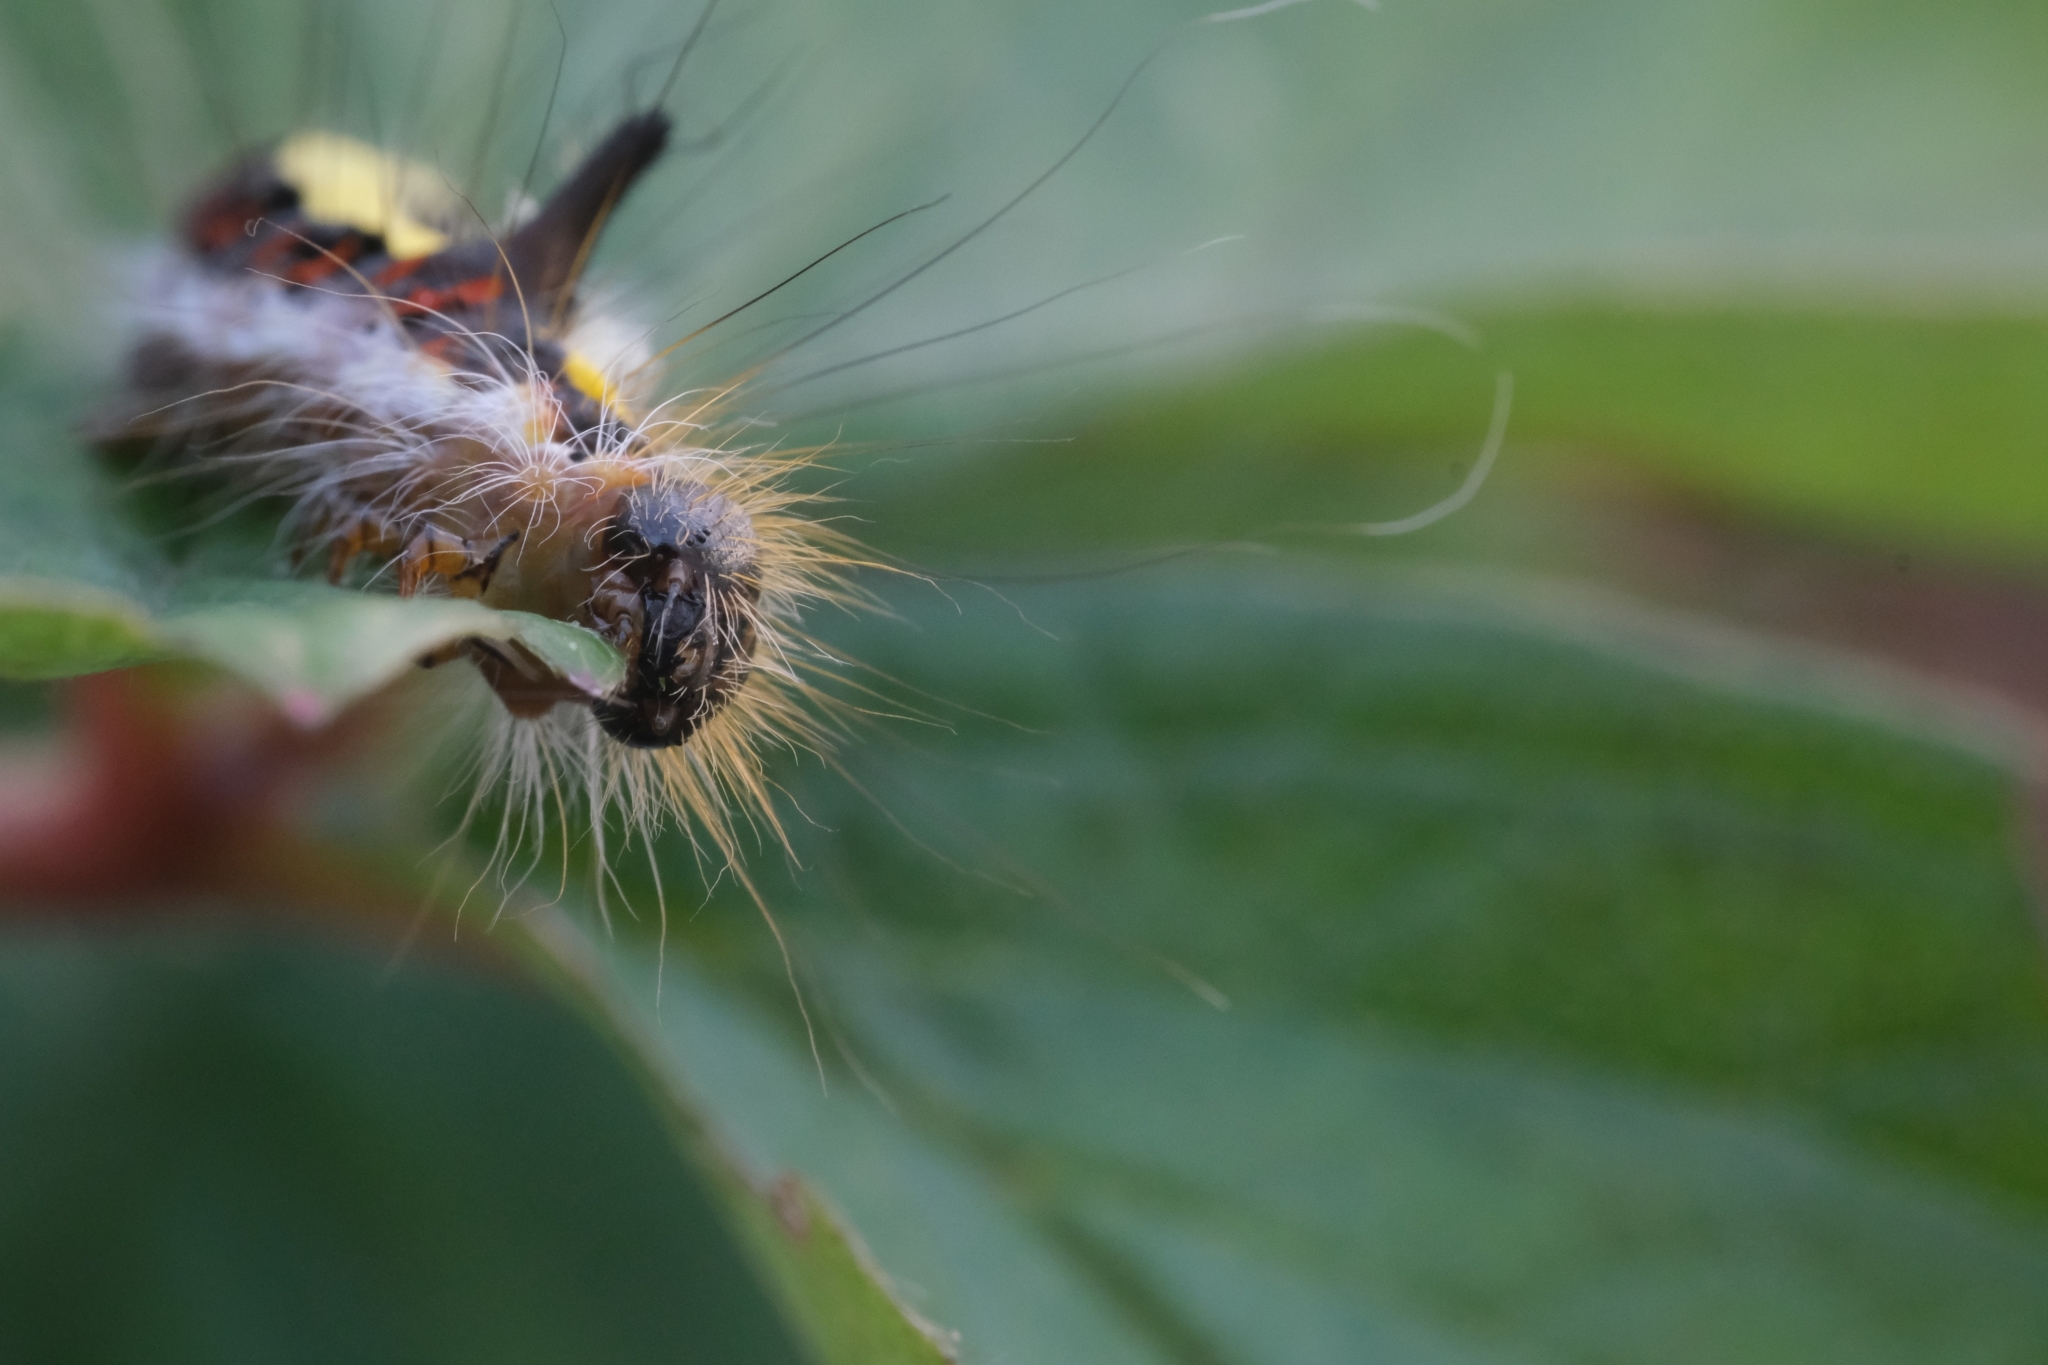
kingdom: Animalia
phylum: Arthropoda
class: Insecta
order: Lepidoptera
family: Noctuidae
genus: Acronicta
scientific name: Acronicta psi
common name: Grey dagger
